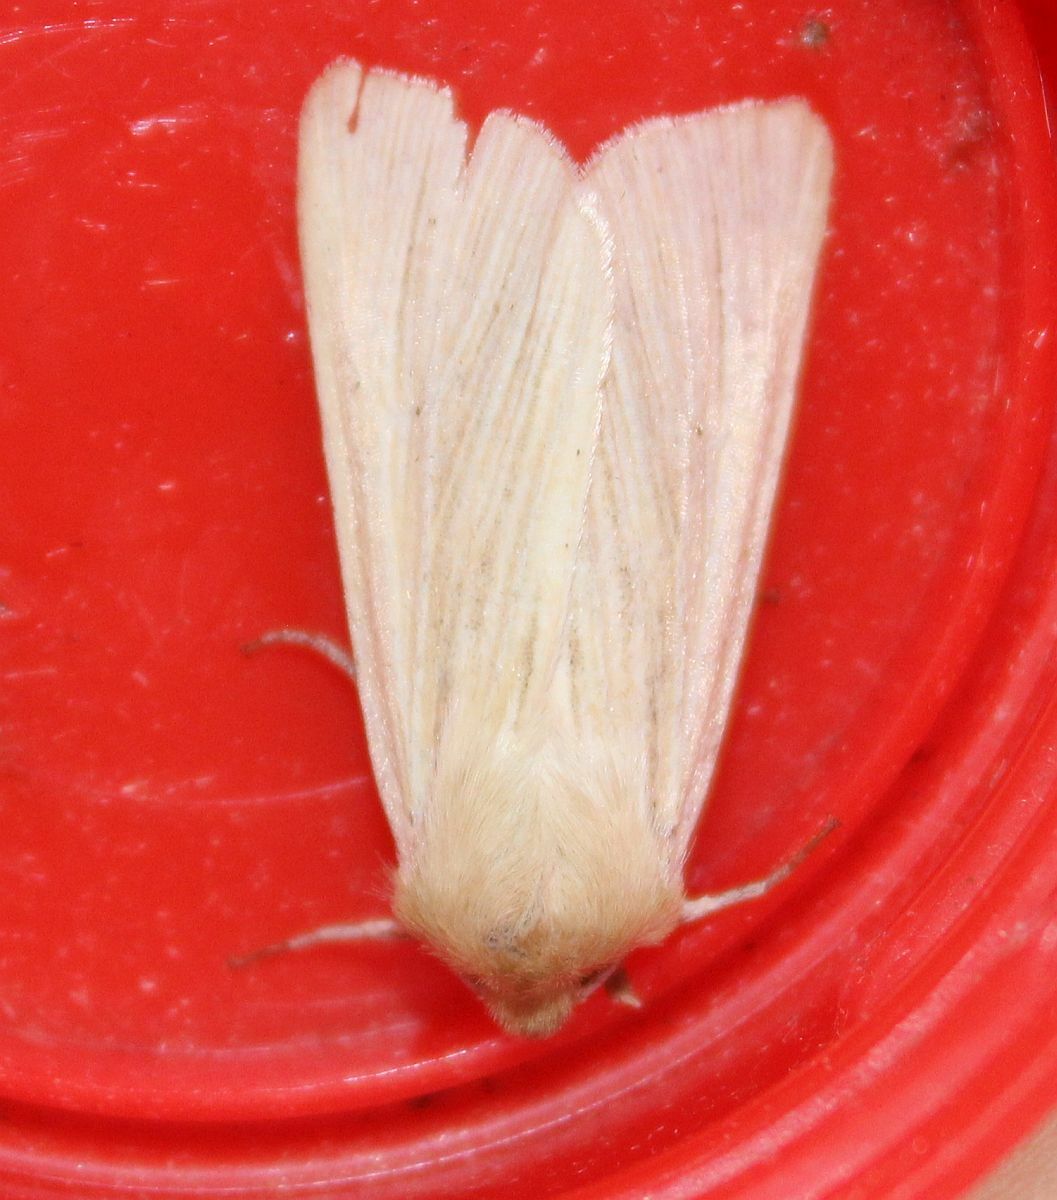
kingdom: Animalia
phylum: Arthropoda
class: Insecta
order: Lepidoptera
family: Noctuidae
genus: Mythimna
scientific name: Mythimna pallens
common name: Common wainscot
